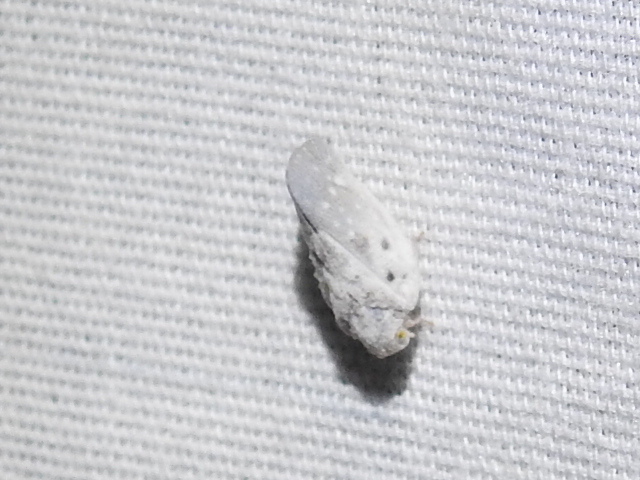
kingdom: Animalia
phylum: Arthropoda
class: Insecta
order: Hemiptera
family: Flatidae
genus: Metcalfa
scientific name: Metcalfa pruinosa
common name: Citrus flatid planthopper
